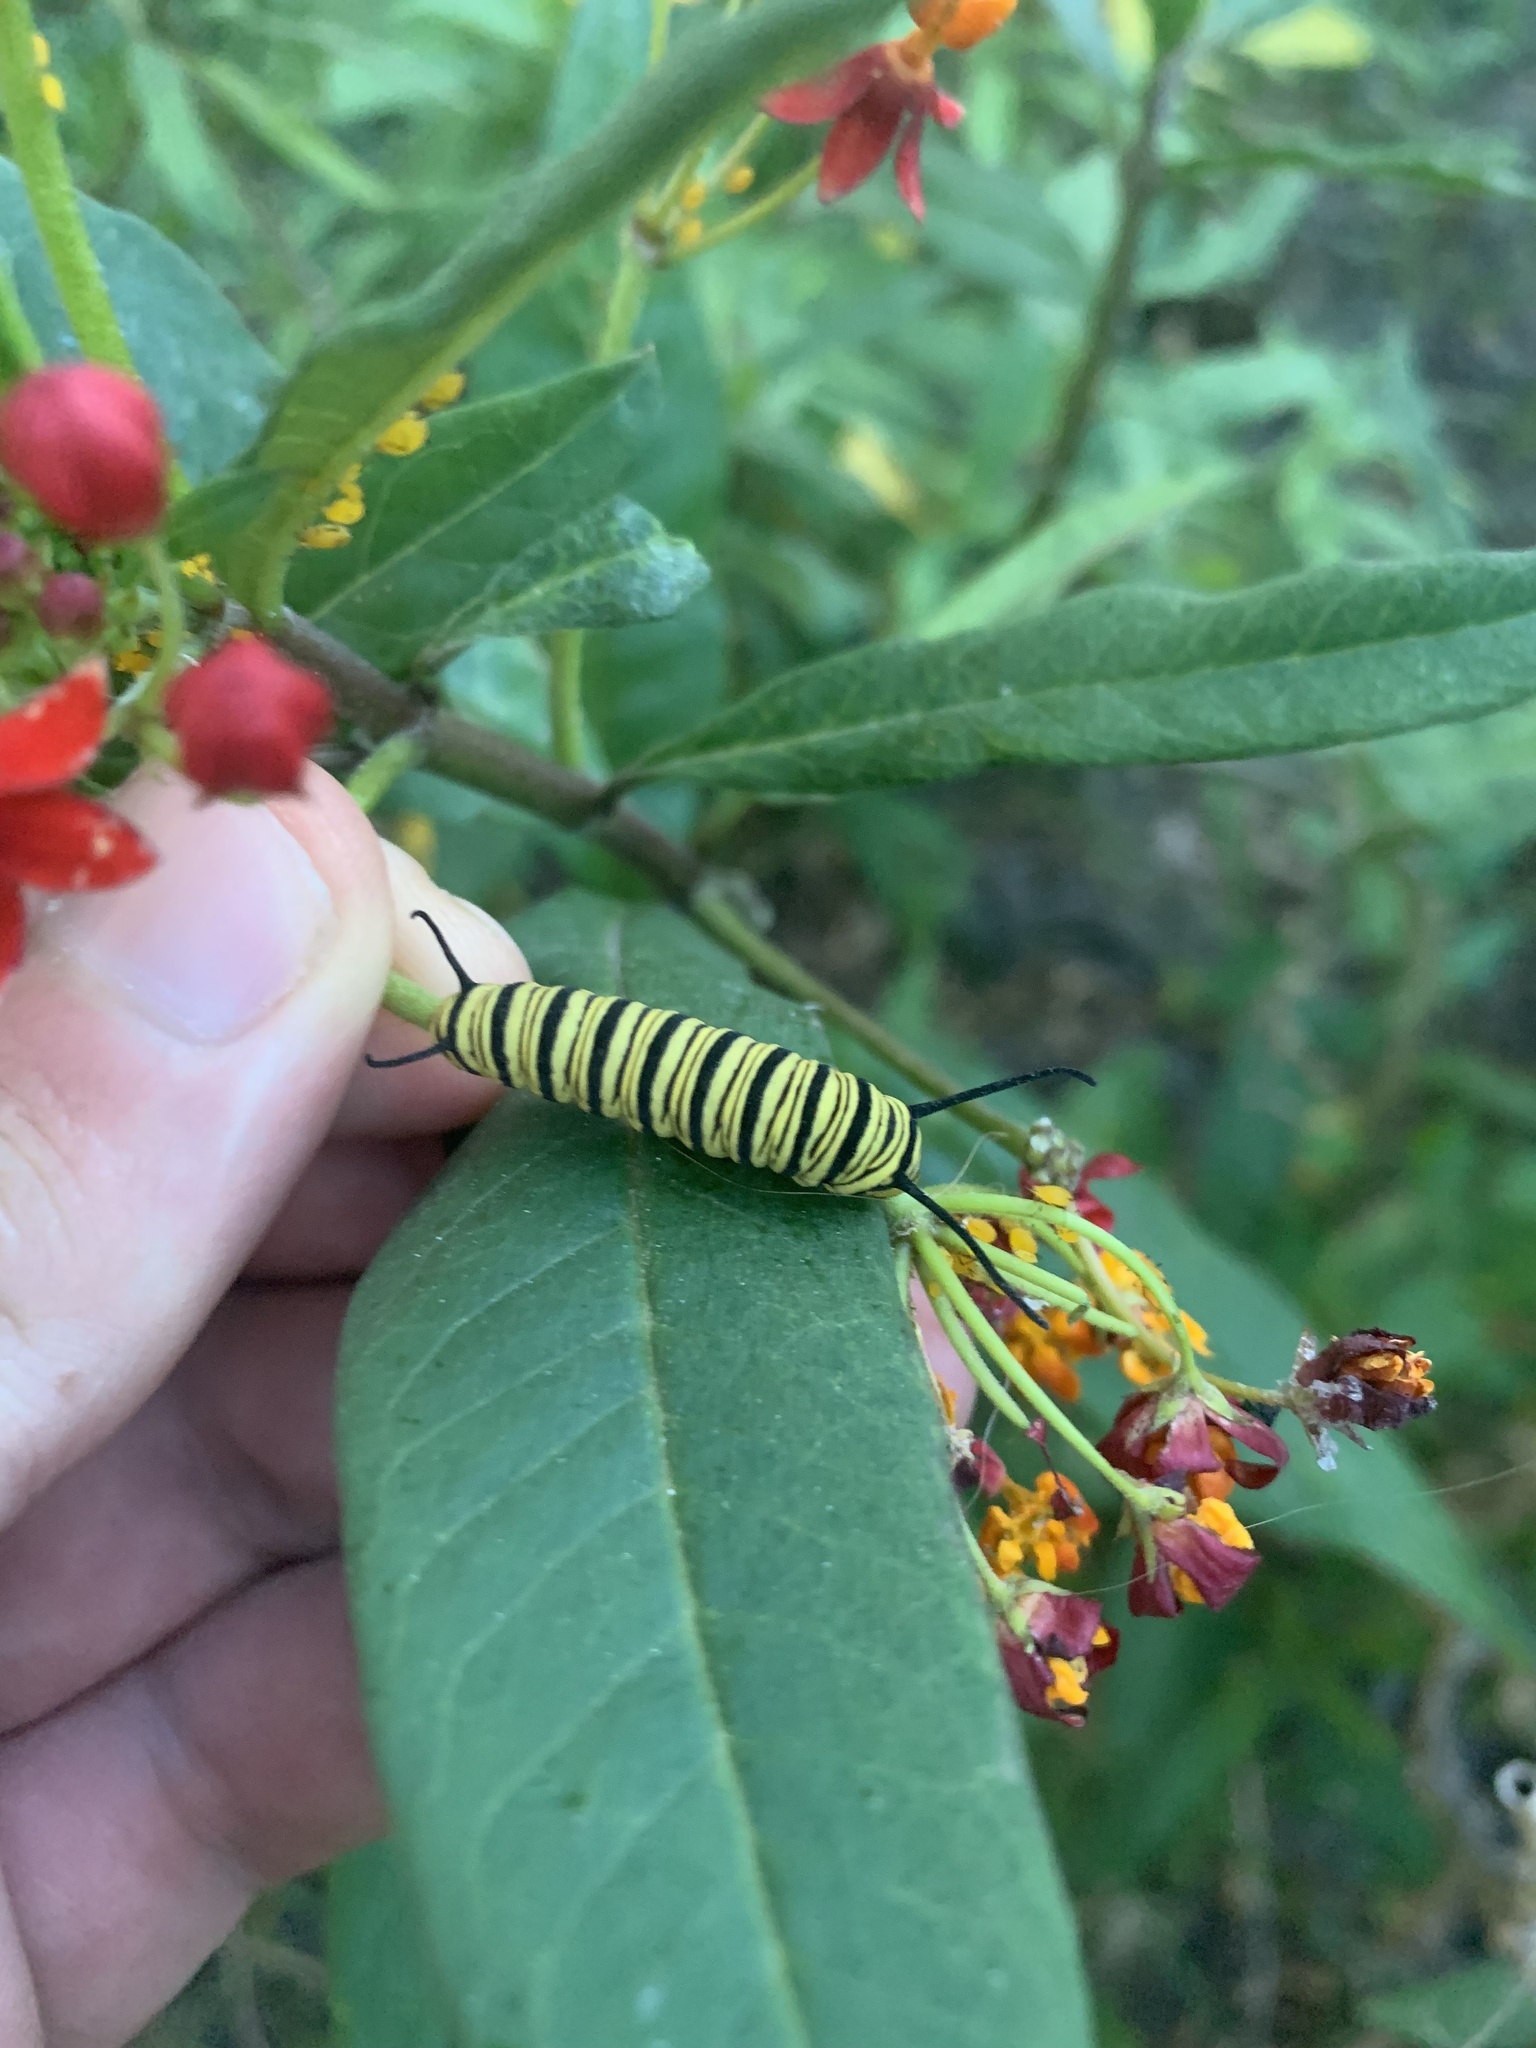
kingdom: Animalia
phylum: Arthropoda
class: Insecta
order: Lepidoptera
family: Nymphalidae
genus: Danaus
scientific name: Danaus erippus
